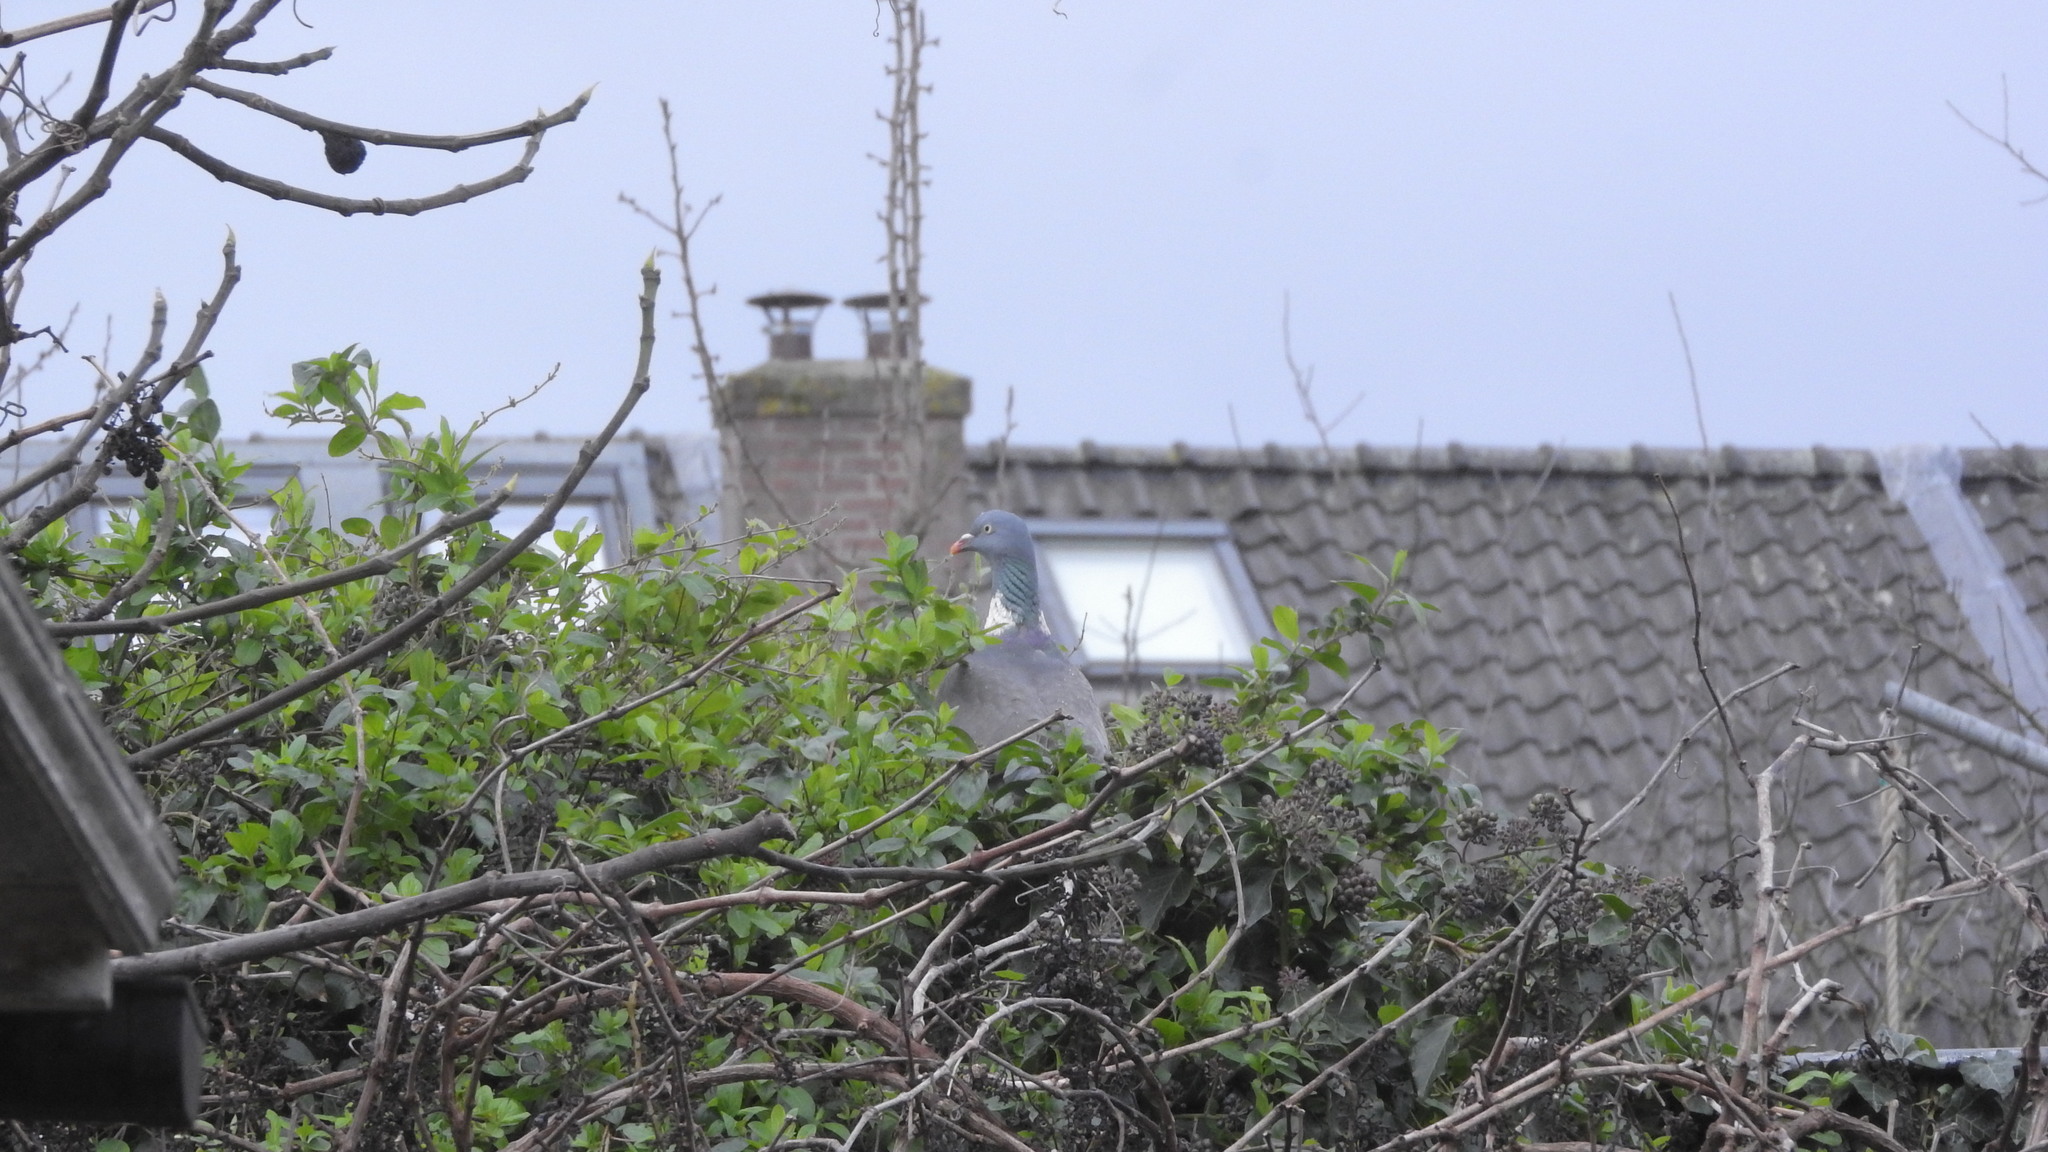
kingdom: Animalia
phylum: Chordata
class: Aves
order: Columbiformes
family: Columbidae
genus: Columba
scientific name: Columba palumbus
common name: Common wood pigeon
